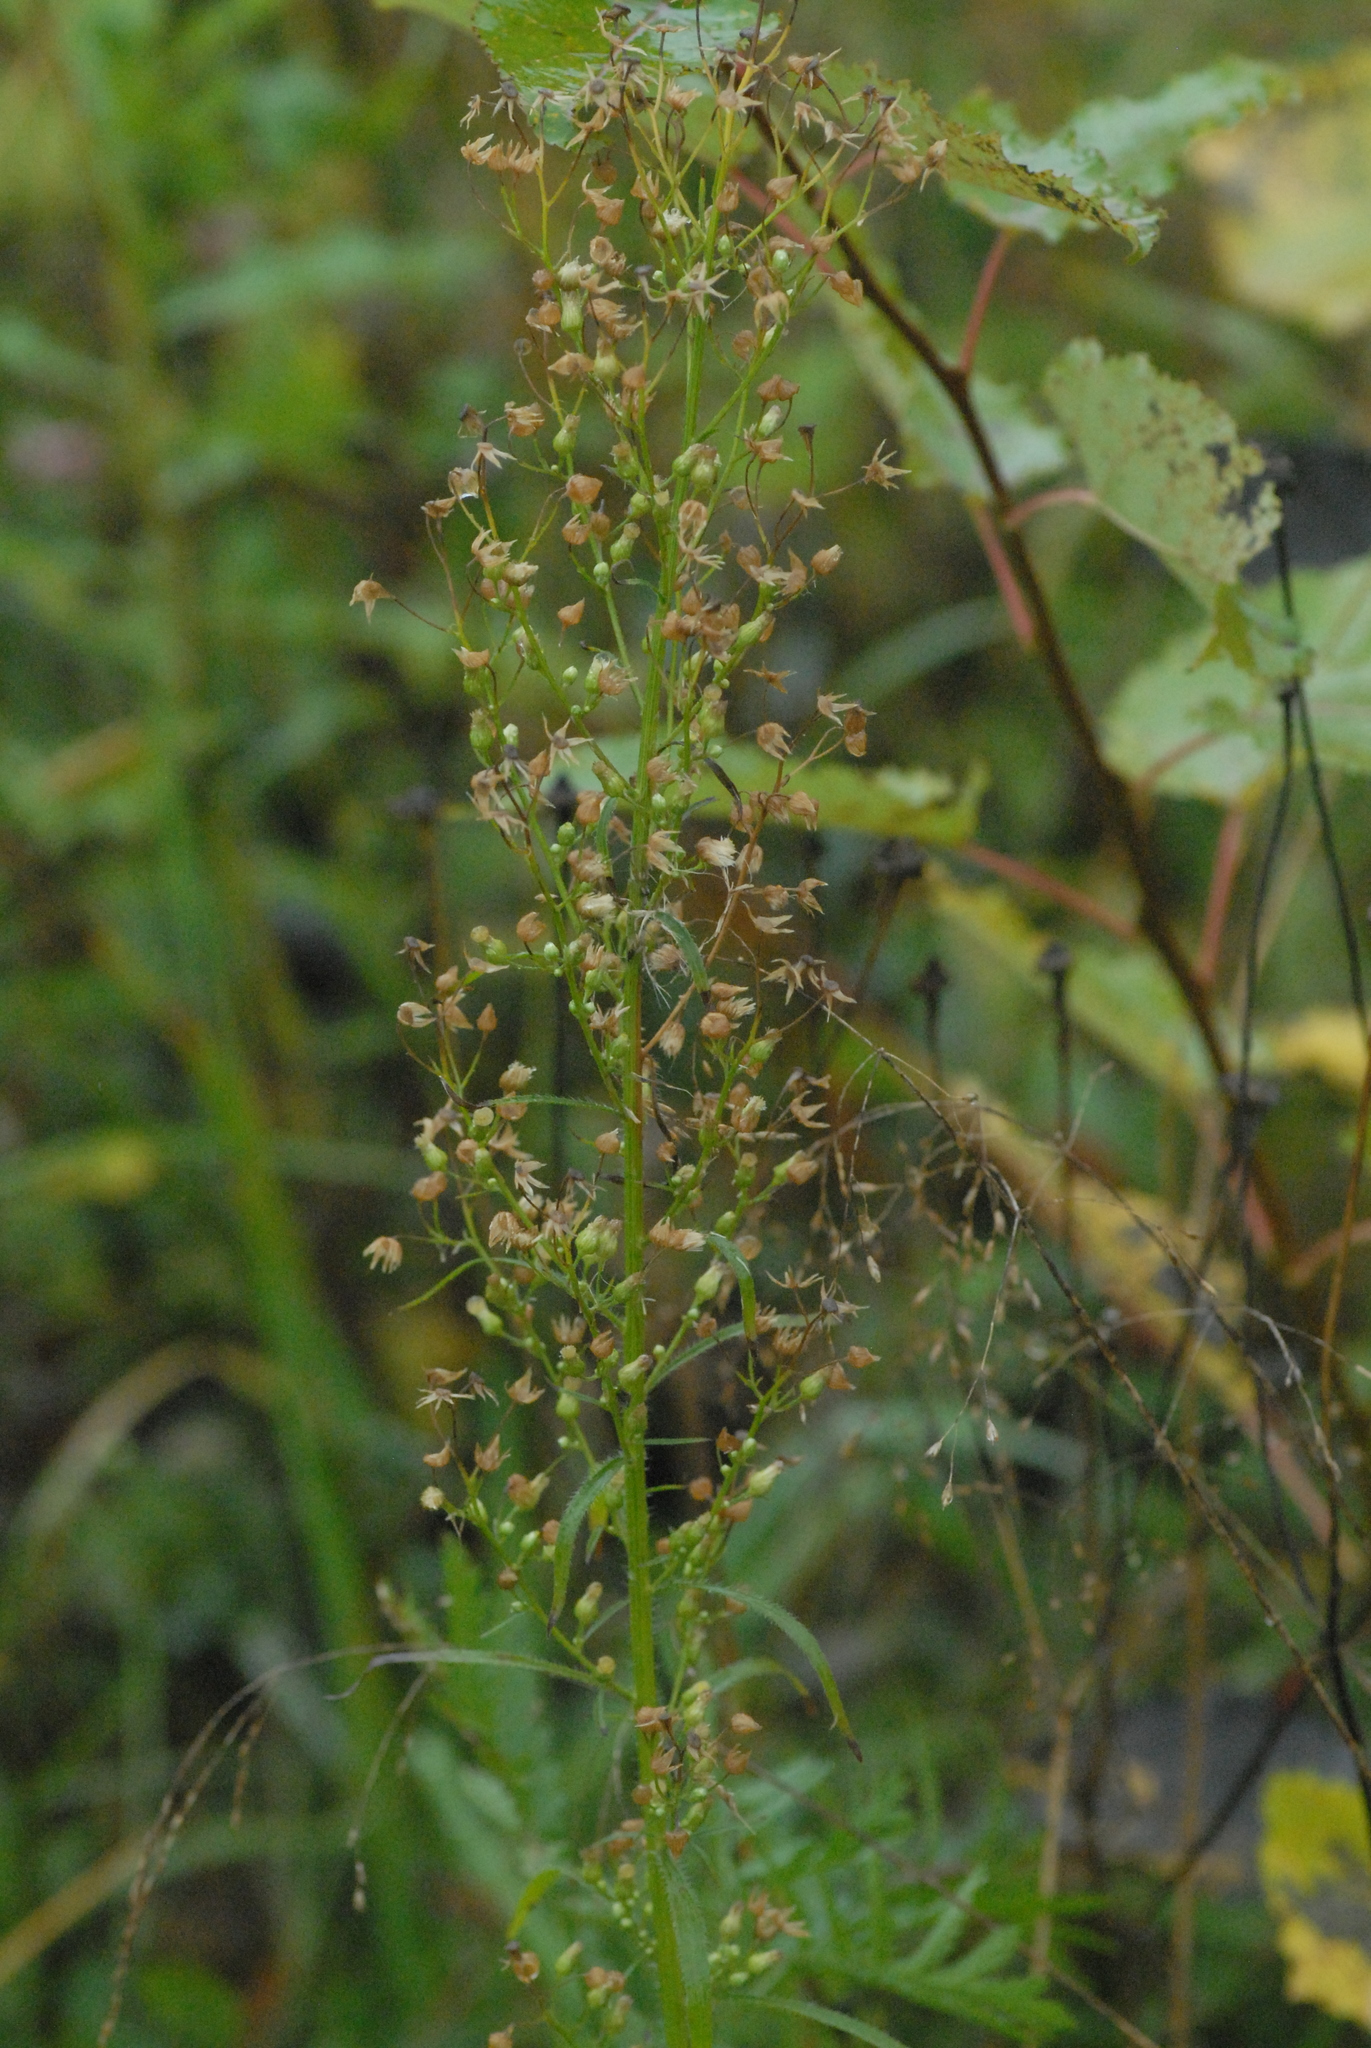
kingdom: Plantae
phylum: Tracheophyta
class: Magnoliopsida
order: Lamiales
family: Scrophulariaceae
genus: Scrophularia
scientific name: Scrophularia nodosa
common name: Common figwort
